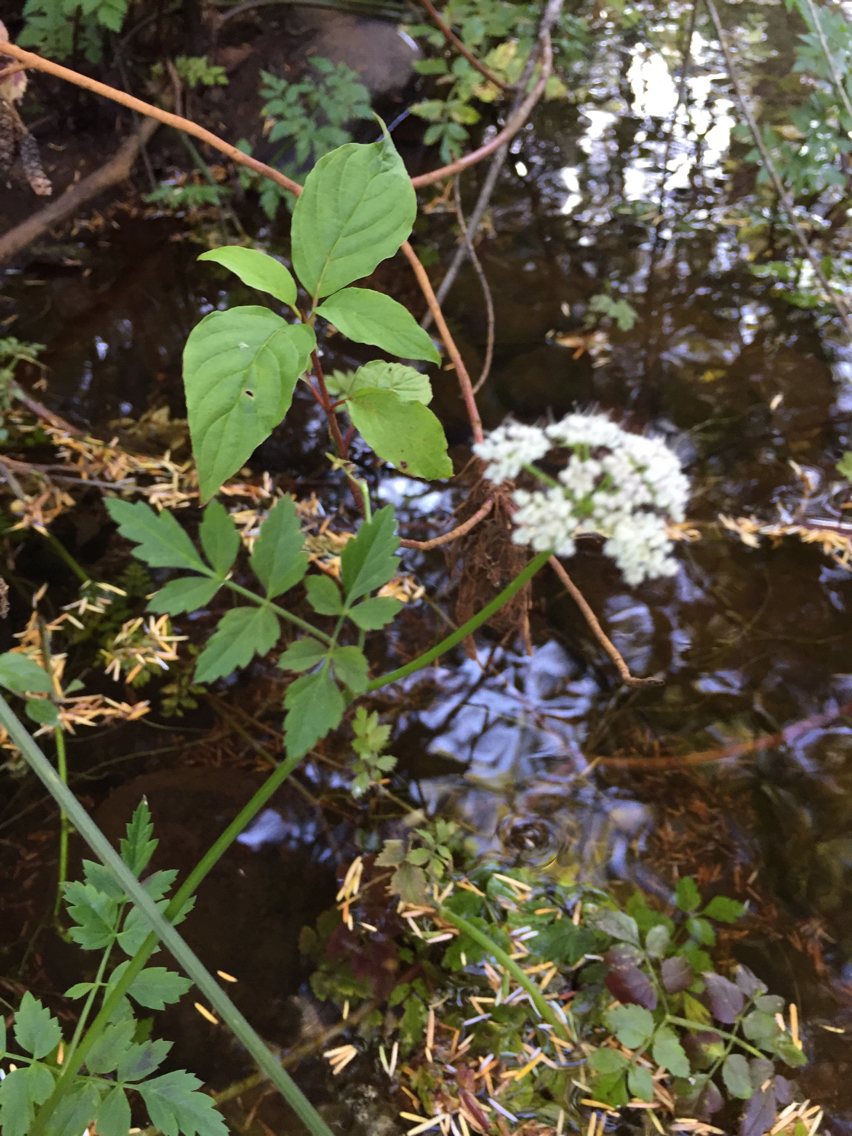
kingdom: Plantae
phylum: Tracheophyta
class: Magnoliopsida
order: Apiales
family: Apiaceae
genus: Oenanthe
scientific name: Oenanthe sarmentosa
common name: American water-parsley
